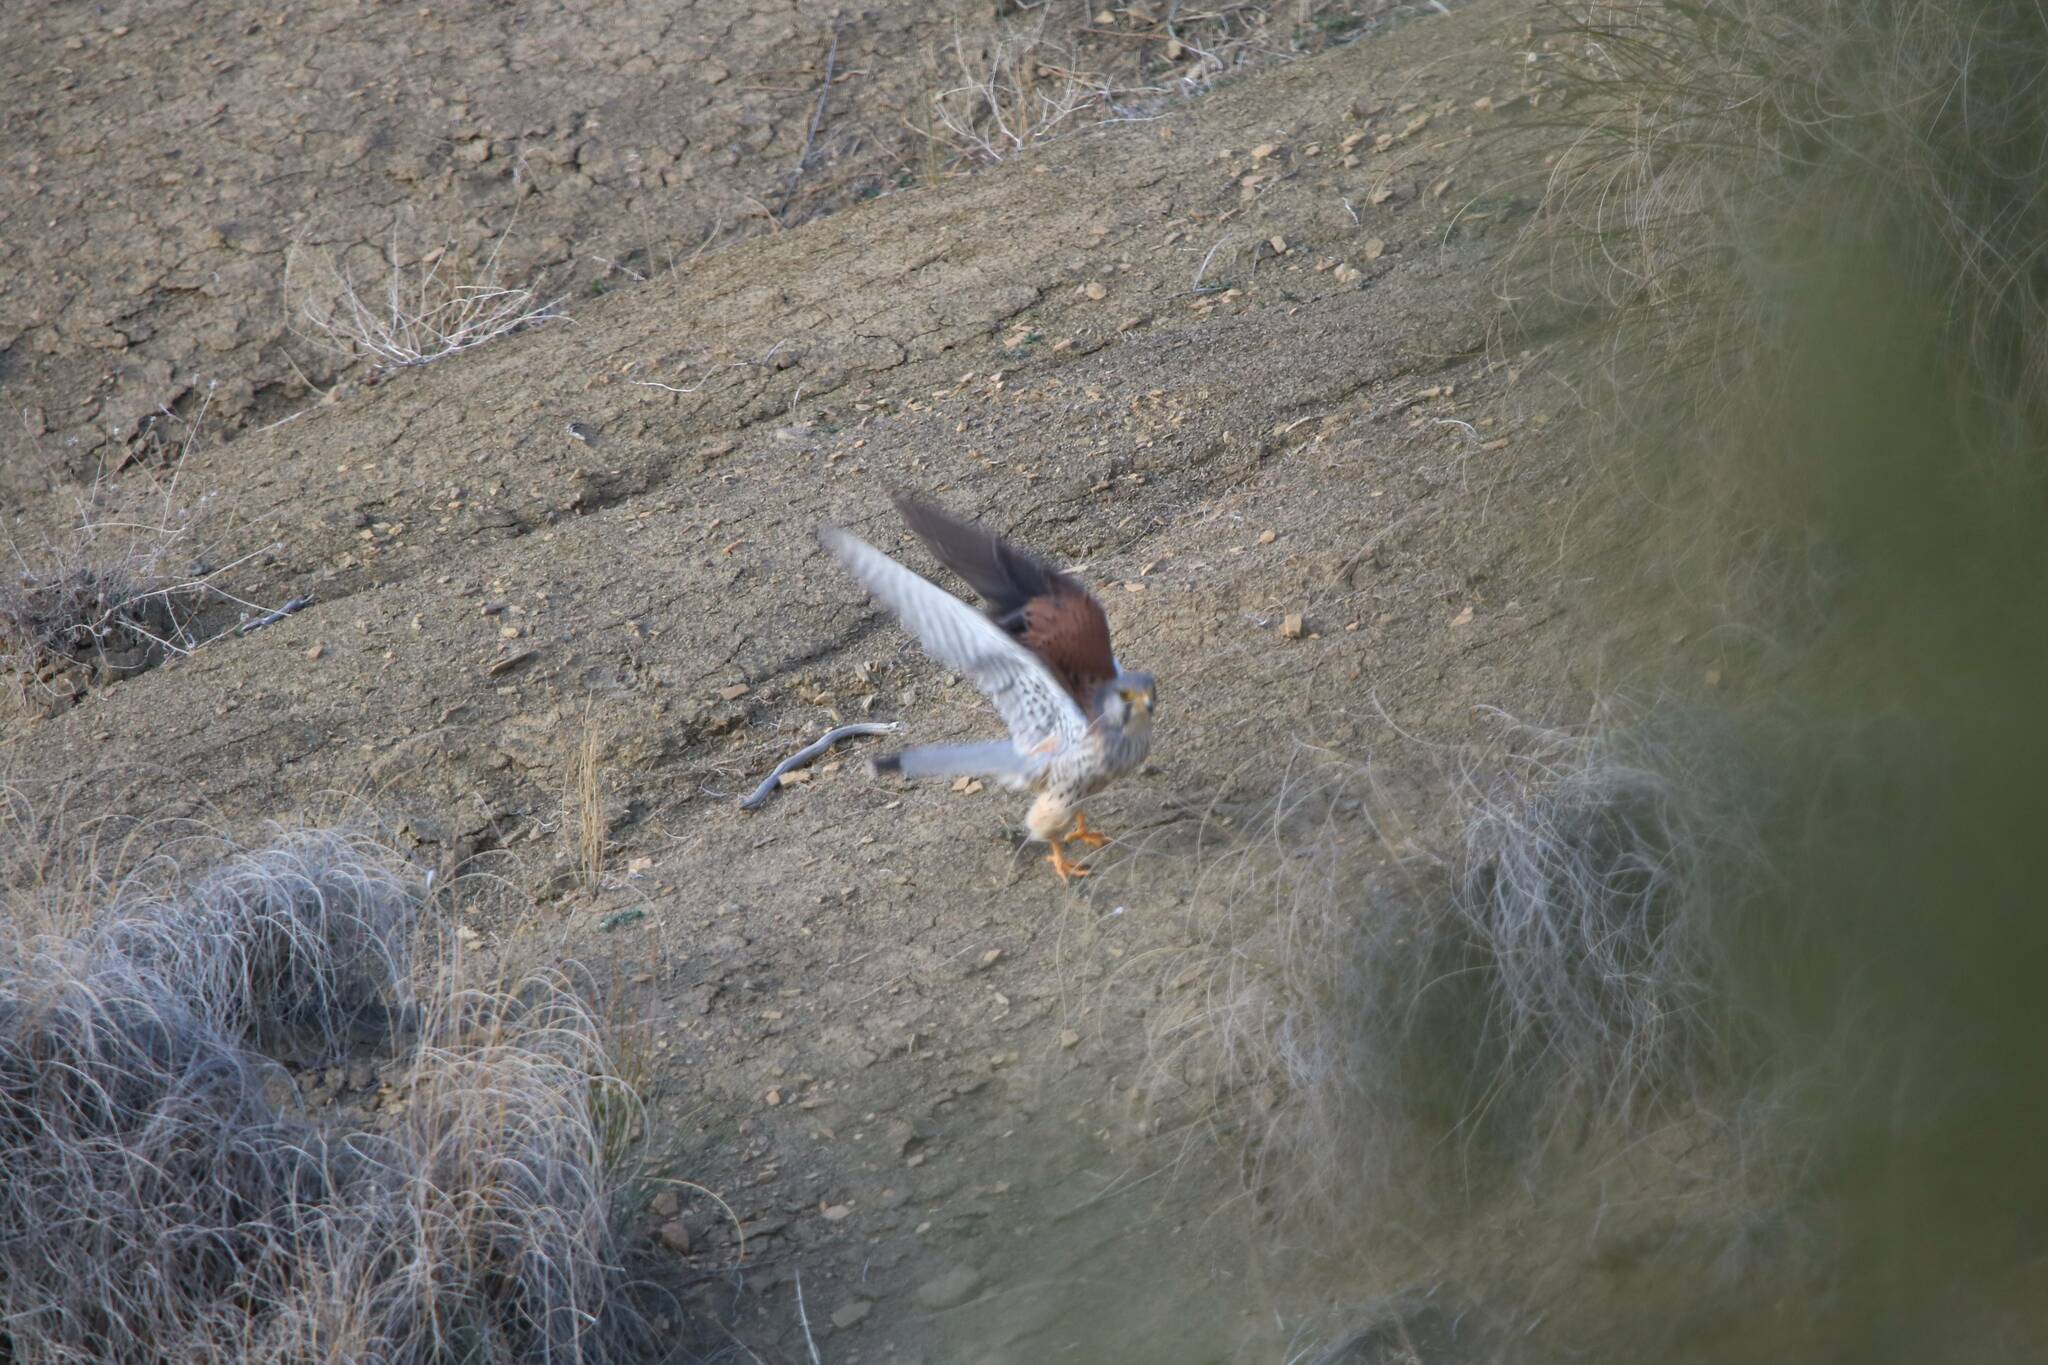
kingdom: Animalia
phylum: Chordata
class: Aves
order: Falconiformes
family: Falconidae
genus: Falco
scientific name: Falco tinnunculus
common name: Common kestrel
